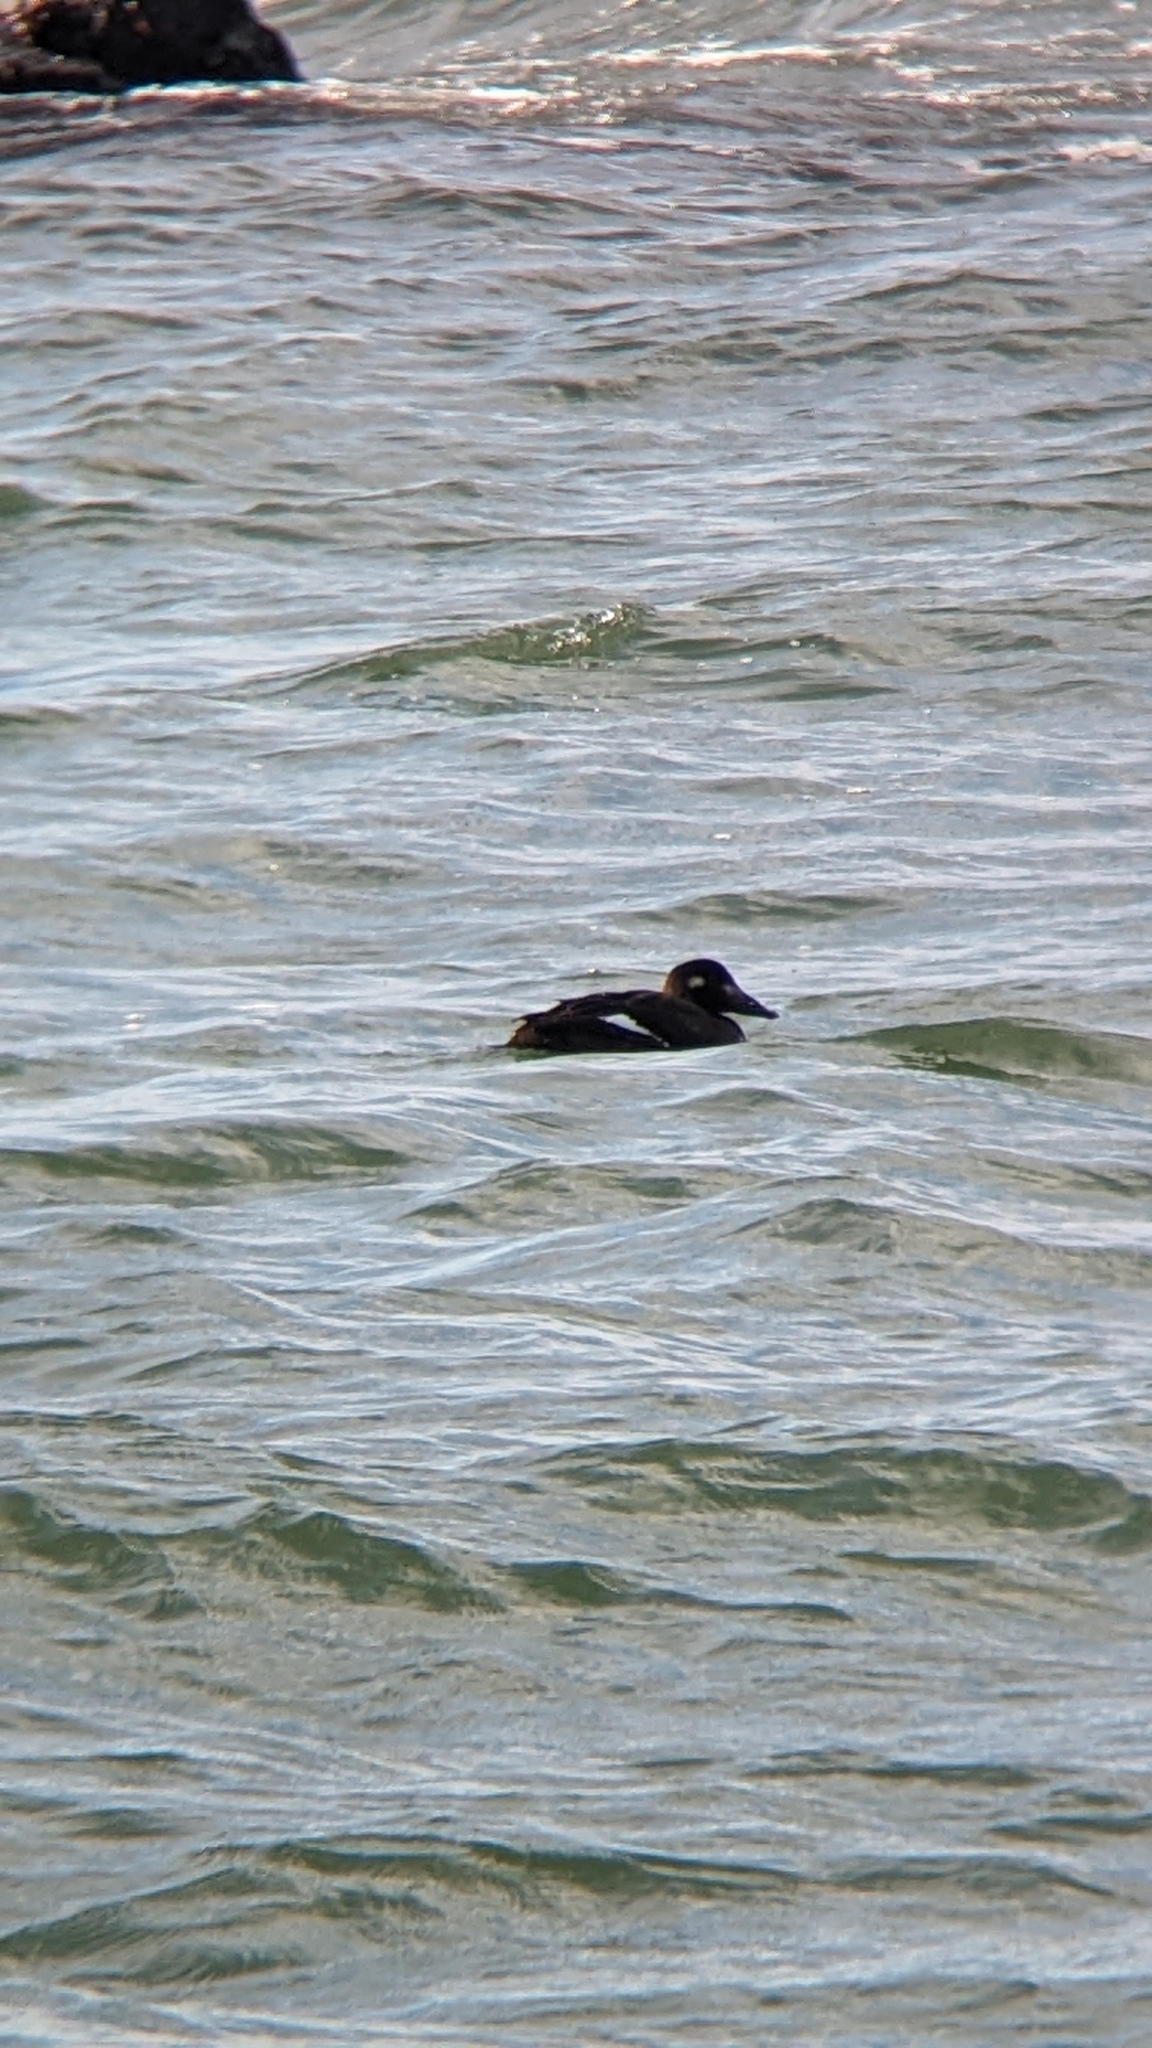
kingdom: Animalia
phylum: Chordata
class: Aves
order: Anseriformes
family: Anatidae
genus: Melanitta
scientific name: Melanitta deglandi
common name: White-winged scoter
